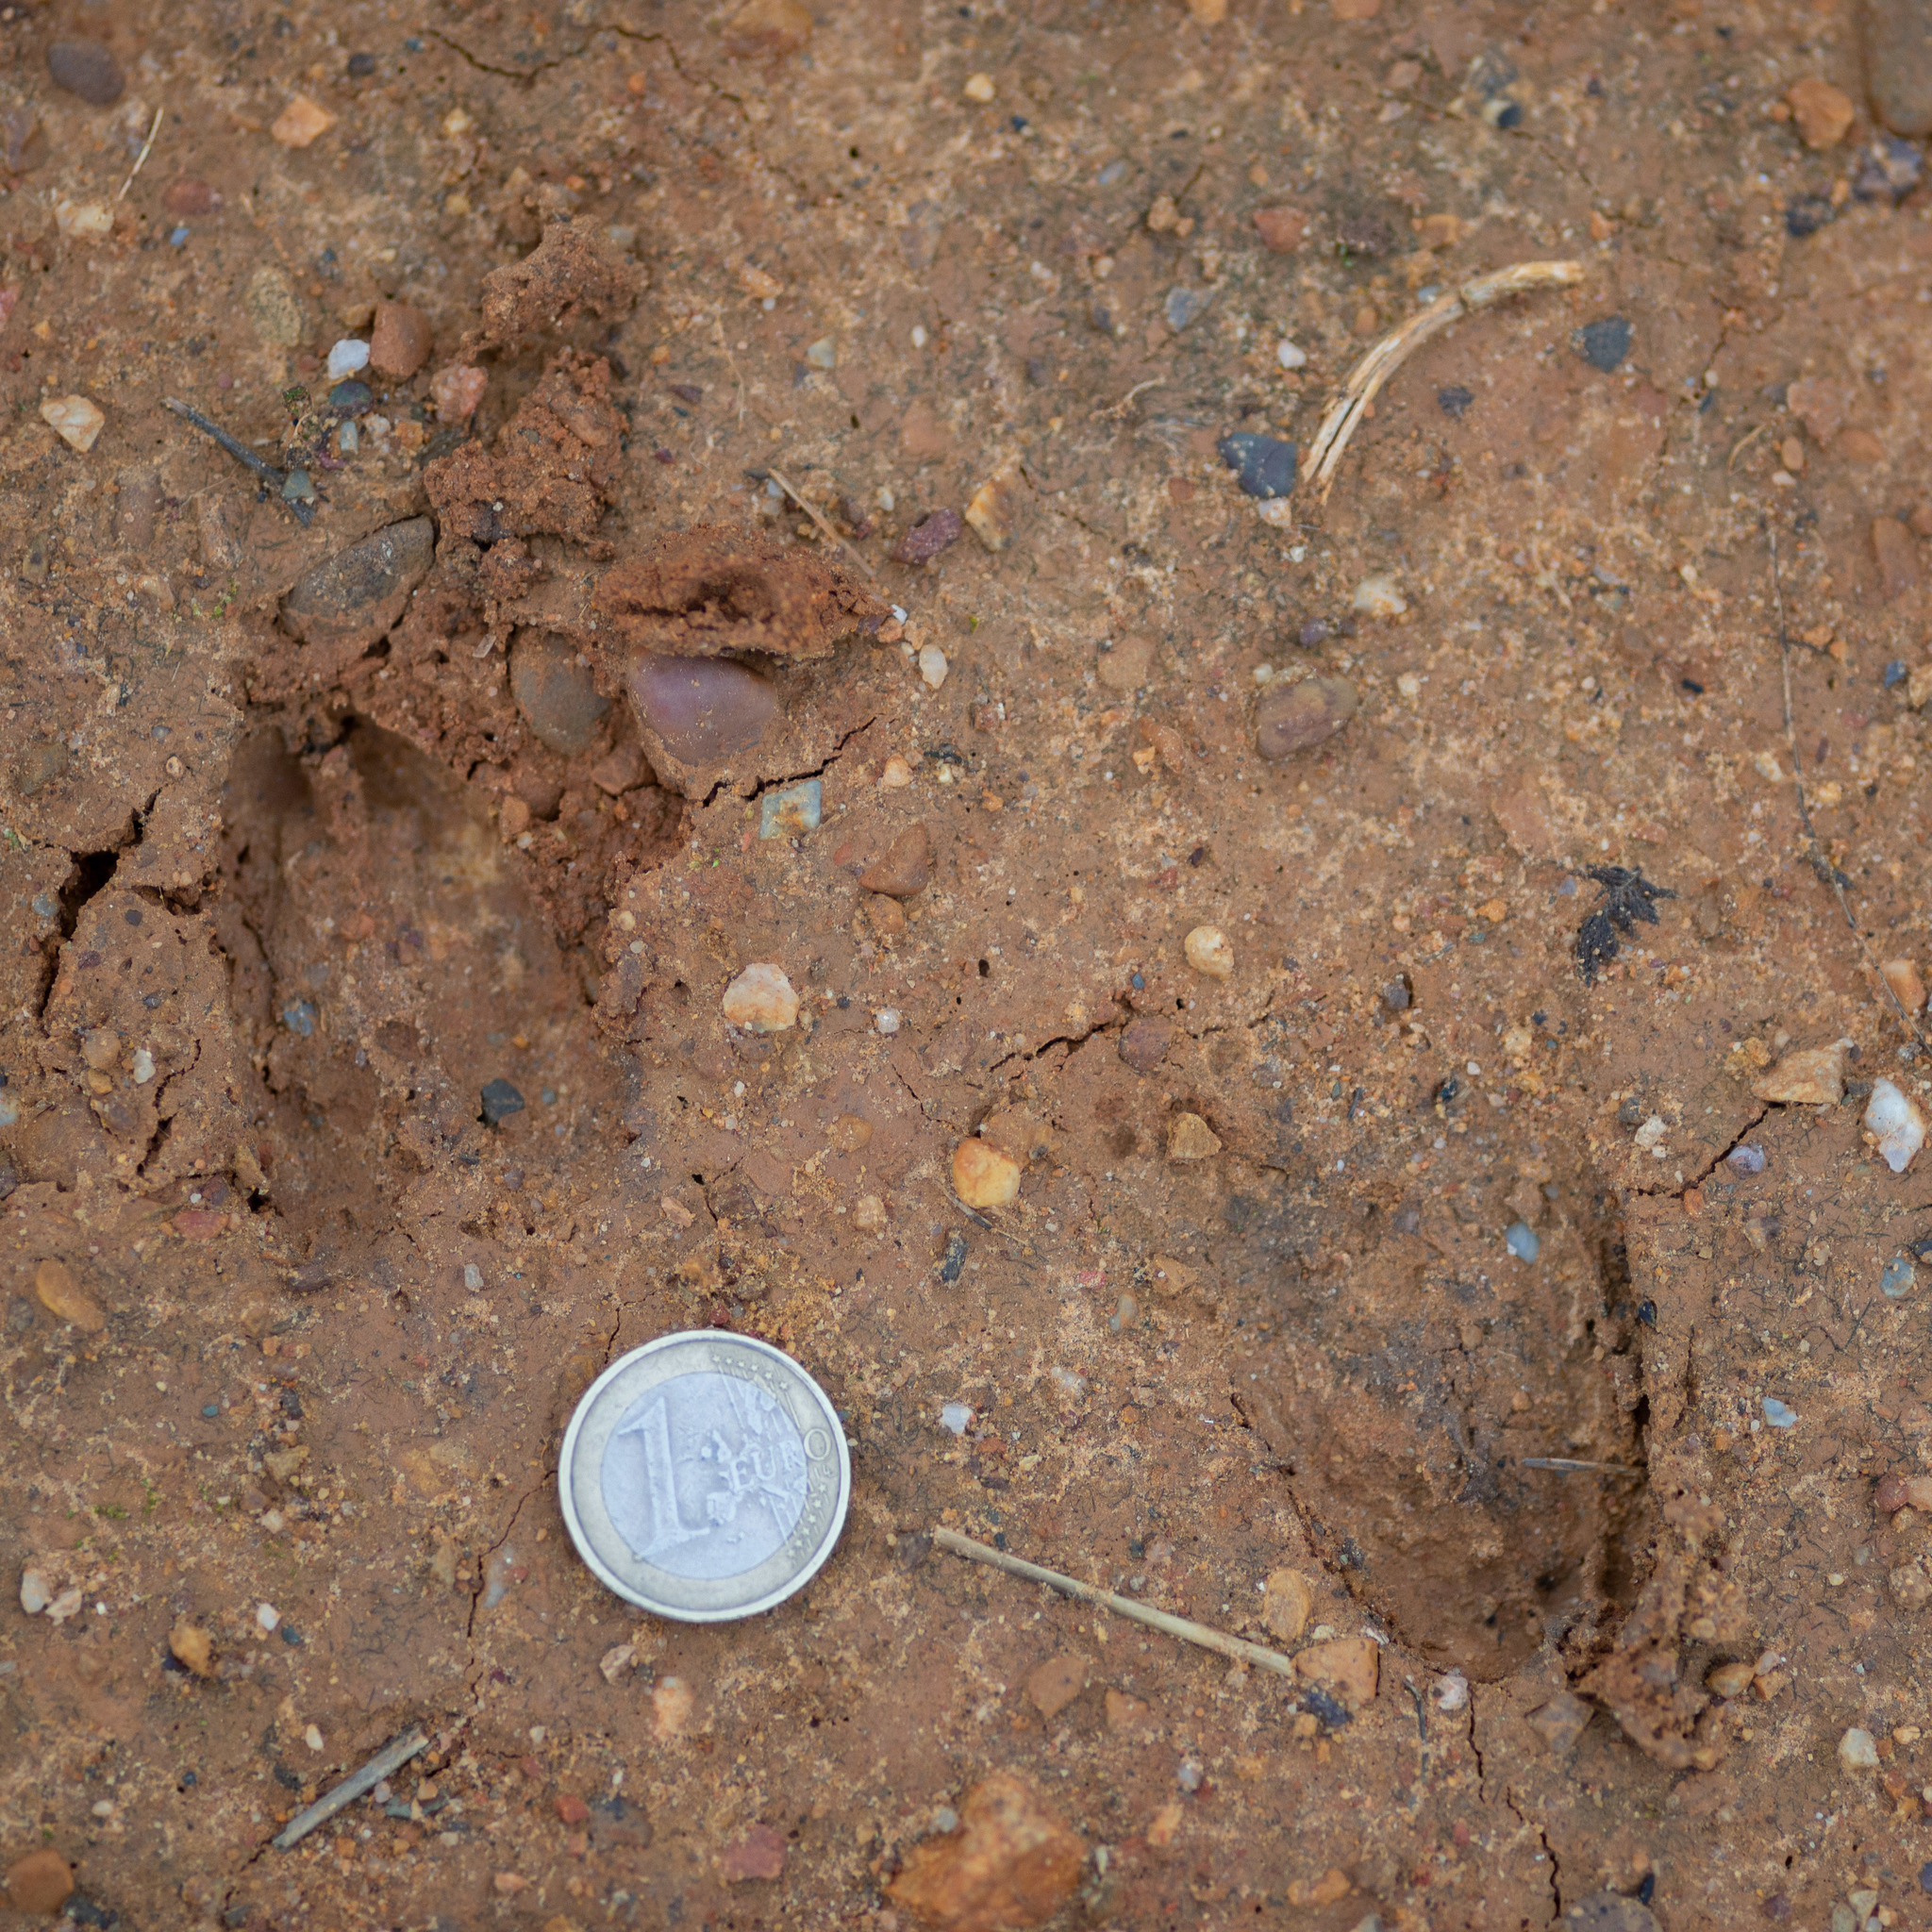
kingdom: Animalia
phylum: Chordata
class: Mammalia
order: Artiodactyla
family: Cervidae
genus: Capreolus
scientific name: Capreolus capreolus
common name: Western roe deer
